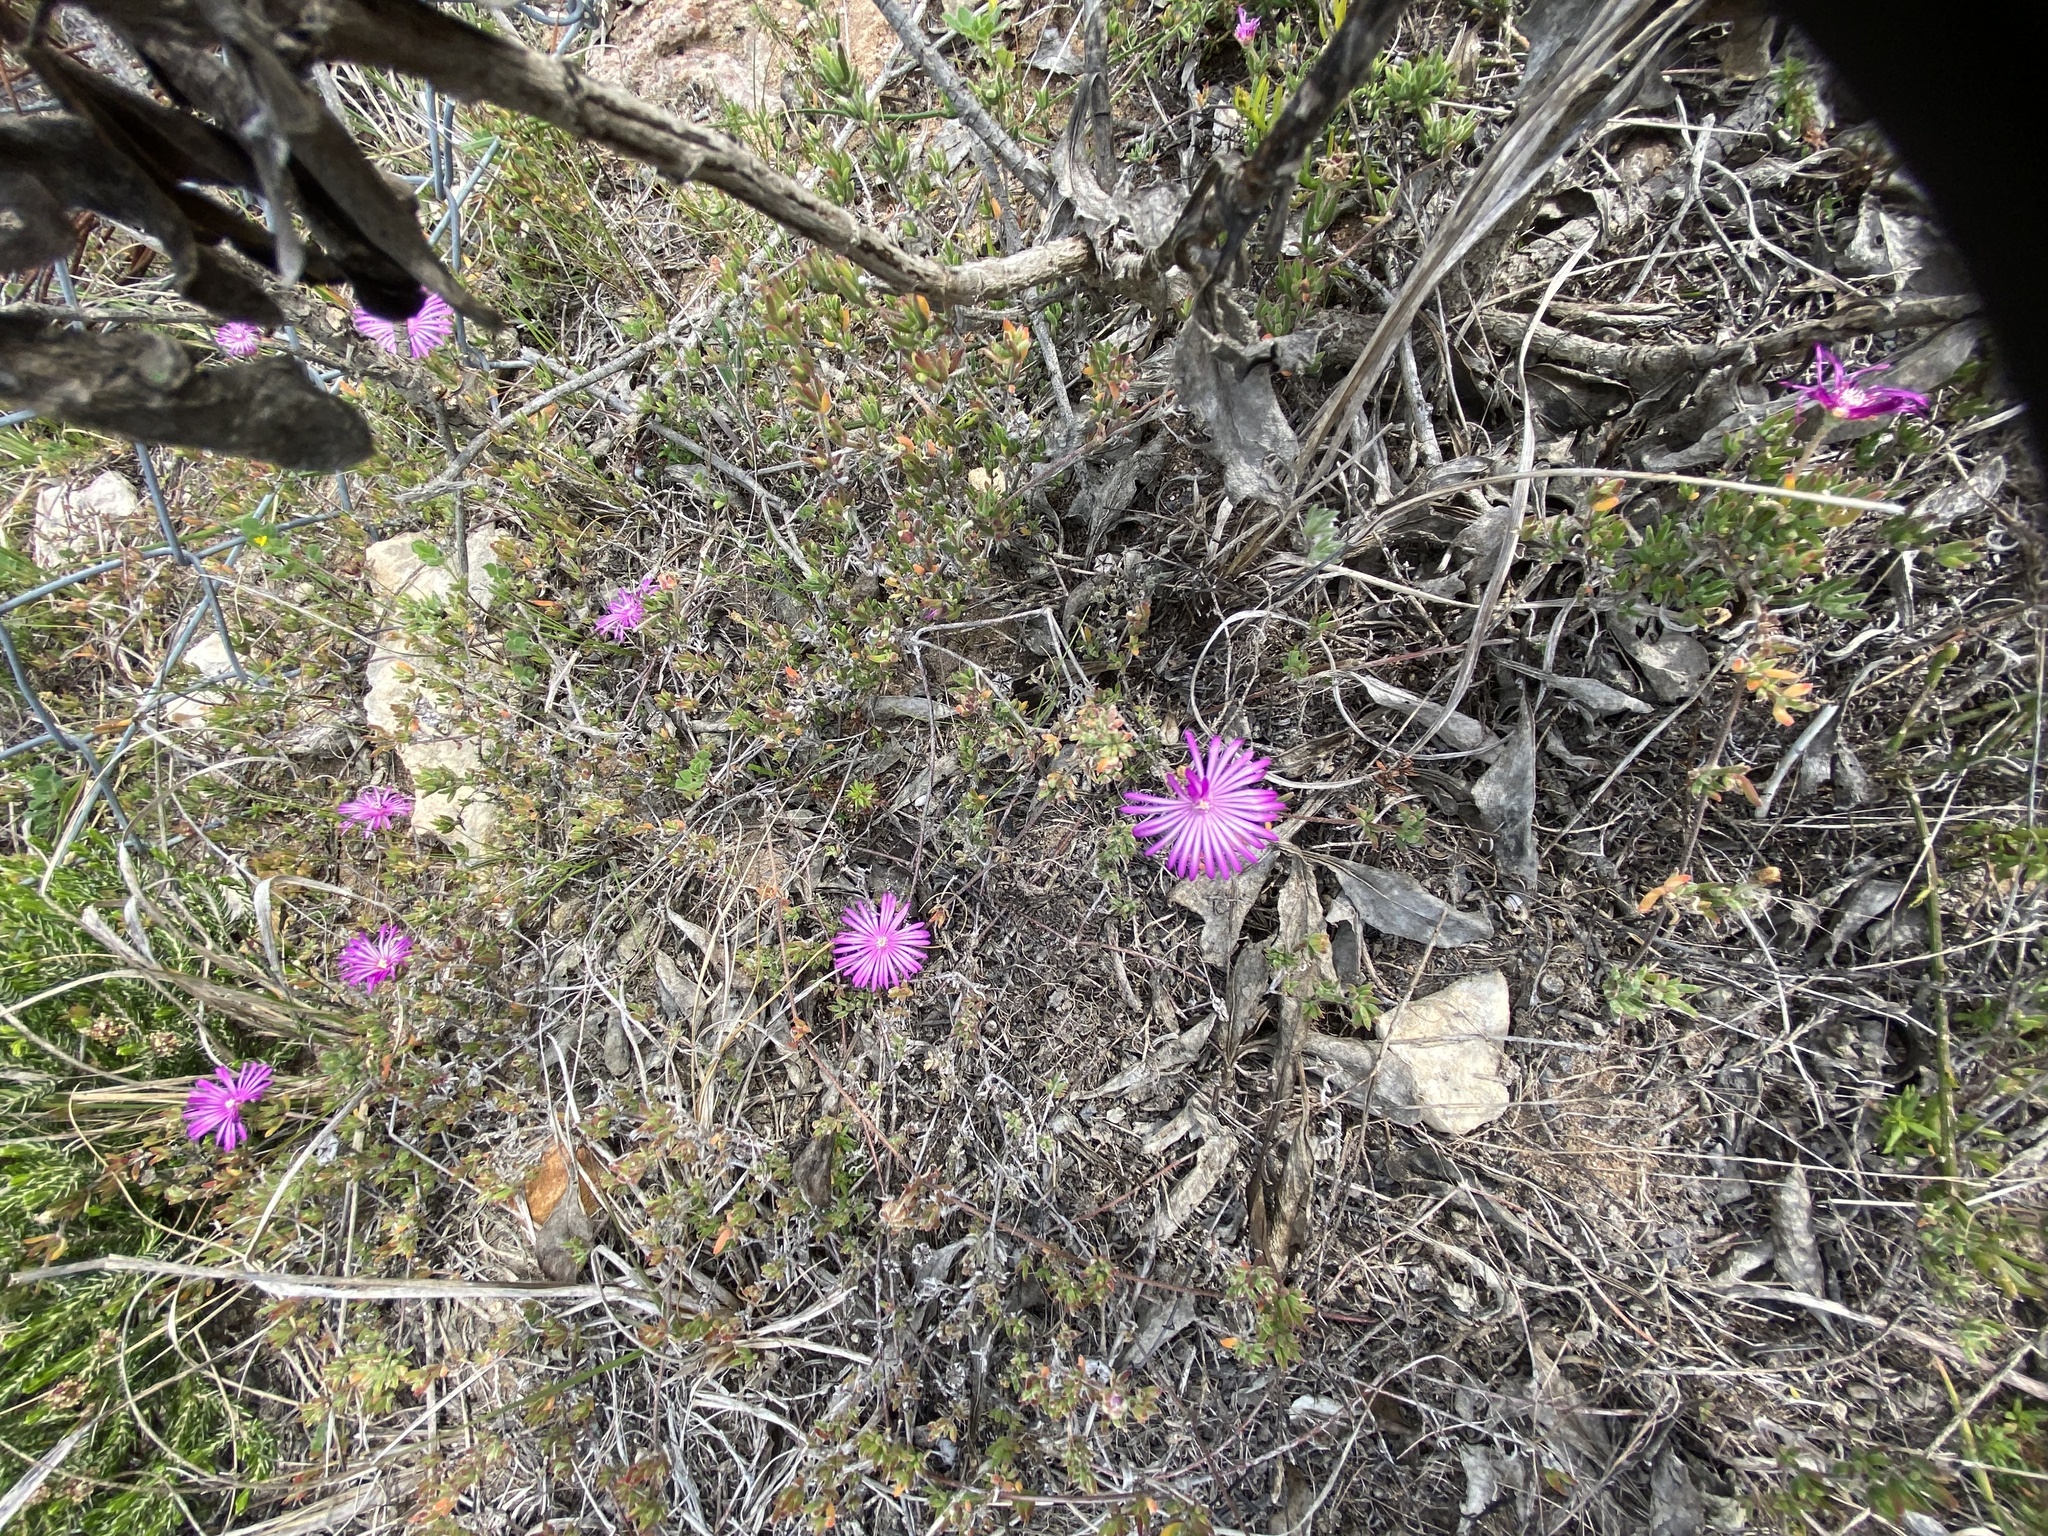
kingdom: Plantae
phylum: Tracheophyta
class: Magnoliopsida
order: Caryophyllales
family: Aizoaceae
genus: Drosanthemum
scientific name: Drosanthemum calcareum
